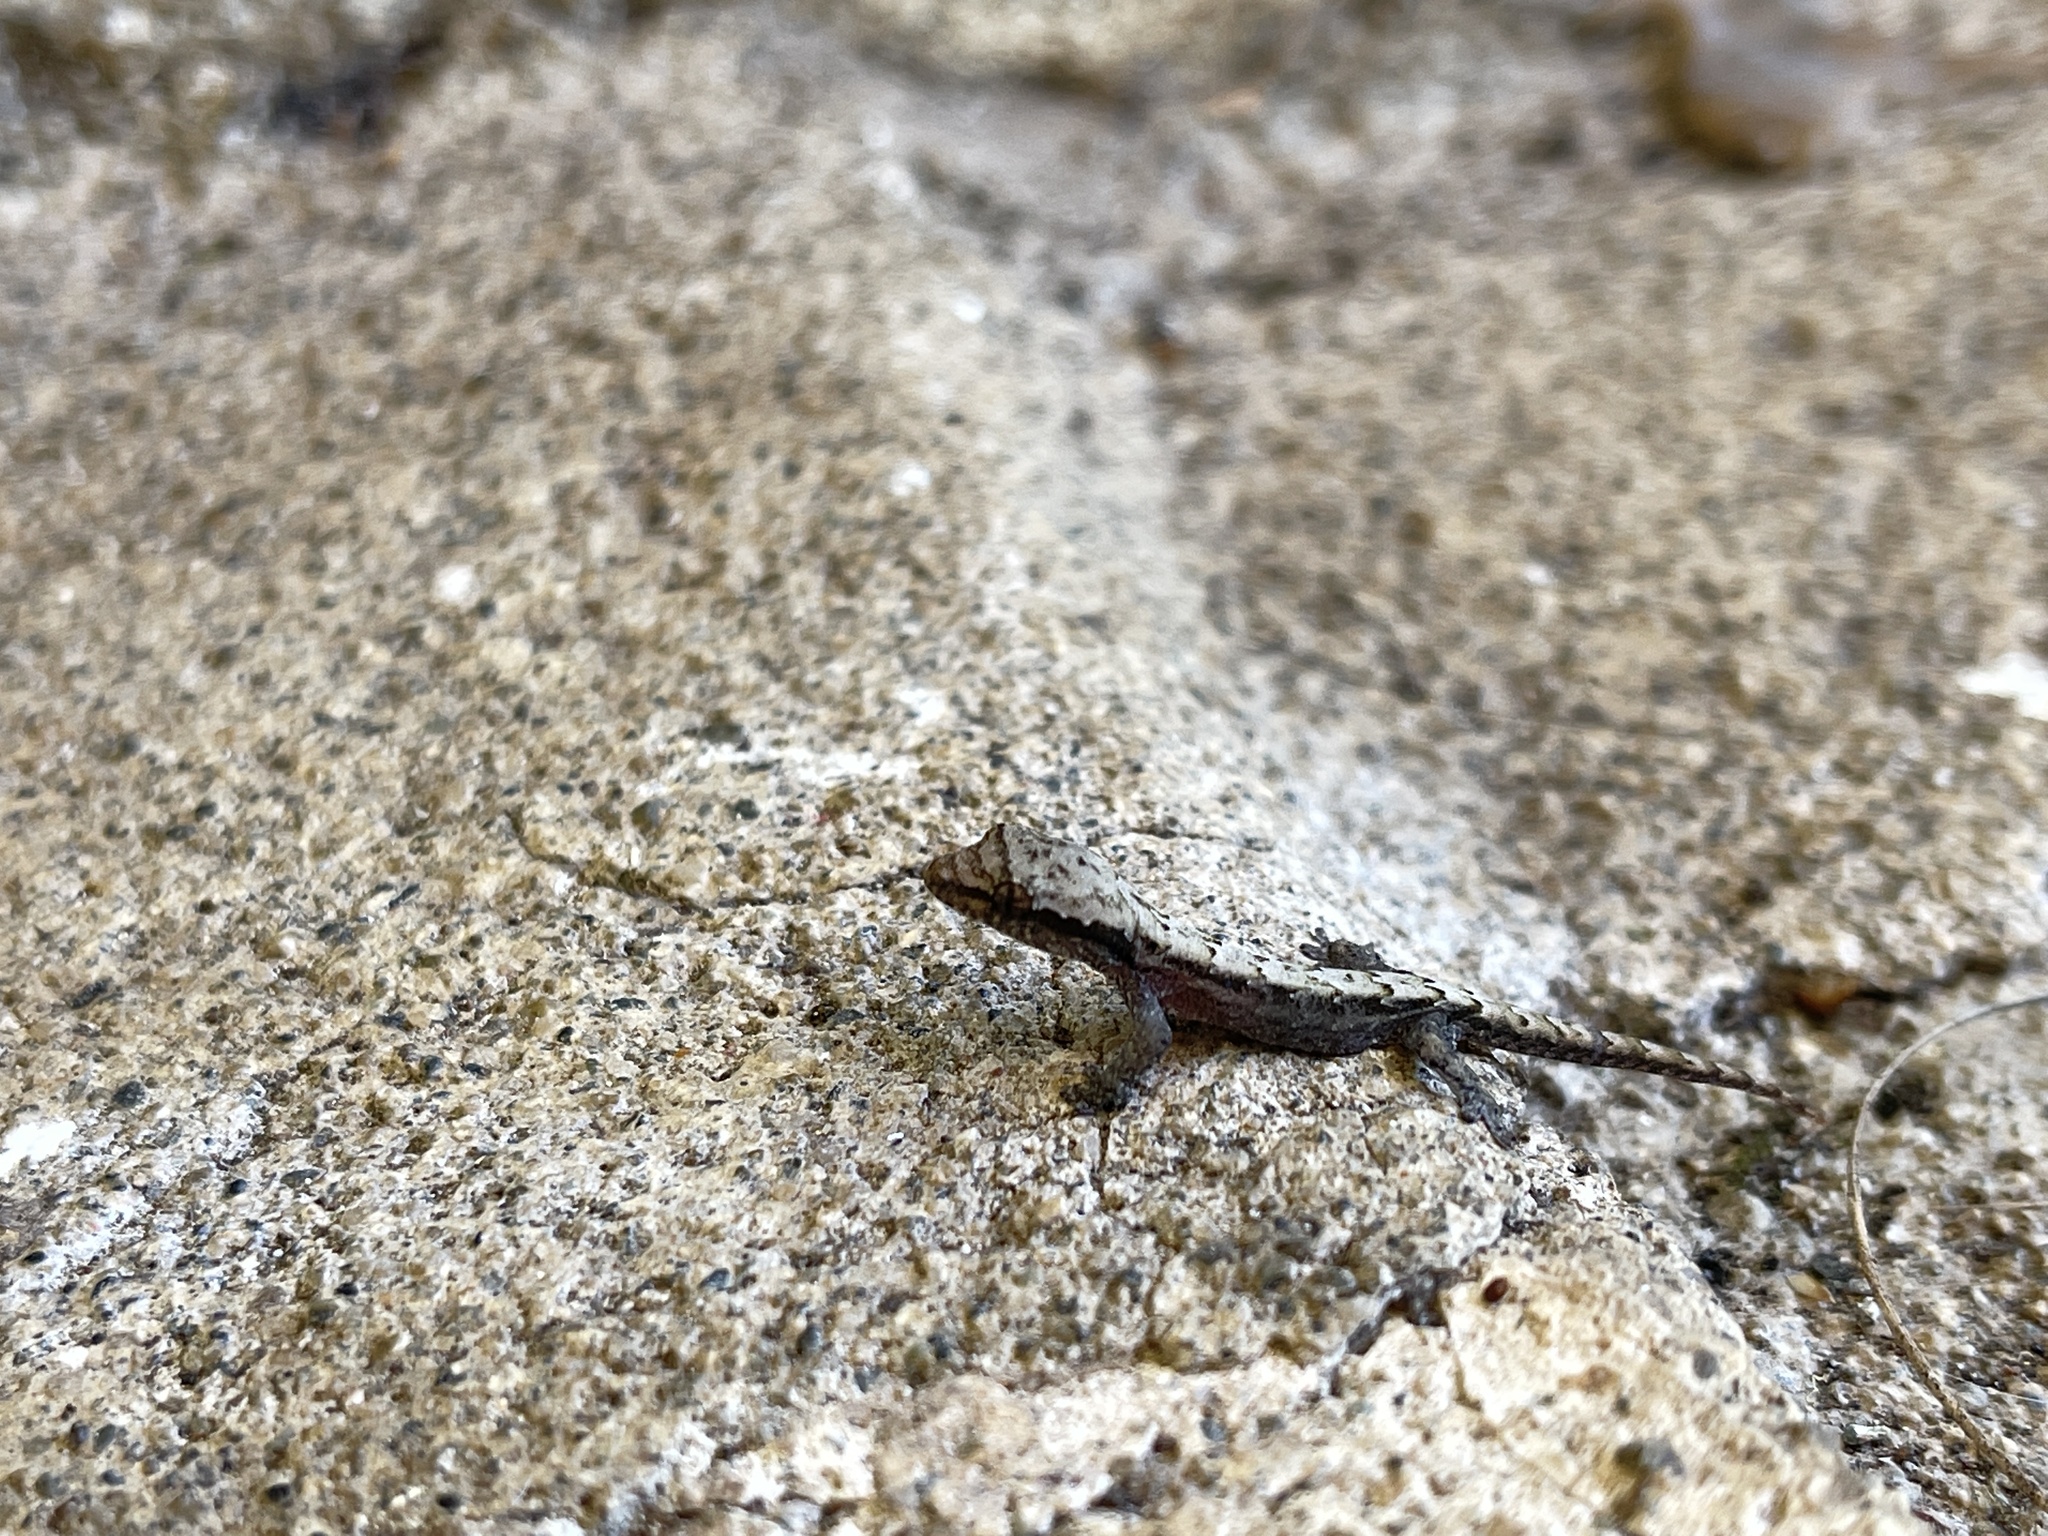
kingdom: Animalia
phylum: Chordata
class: Squamata
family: Gekkonidae
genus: Lepidodactylus
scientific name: Lepidodactylus lugubris
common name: Mourning gecko
